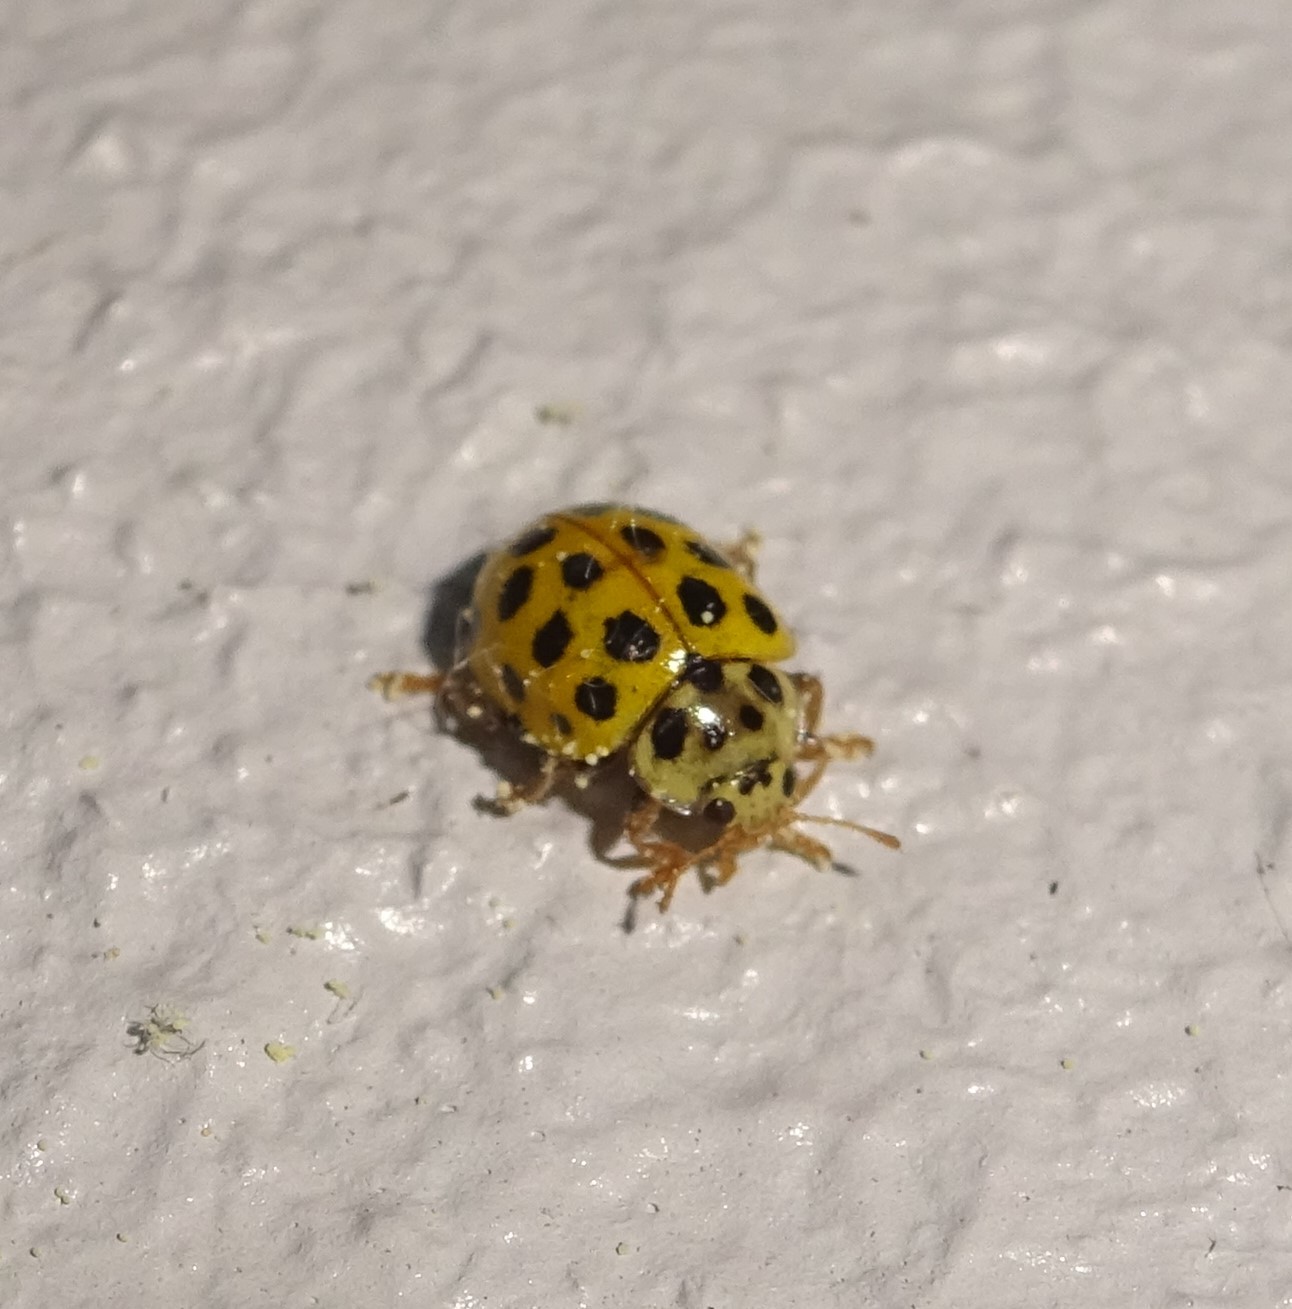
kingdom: Animalia
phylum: Arthropoda
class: Insecta
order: Coleoptera
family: Coccinellidae
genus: Psyllobora
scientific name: Psyllobora vigintiduopunctata
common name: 22-spot ladybird
